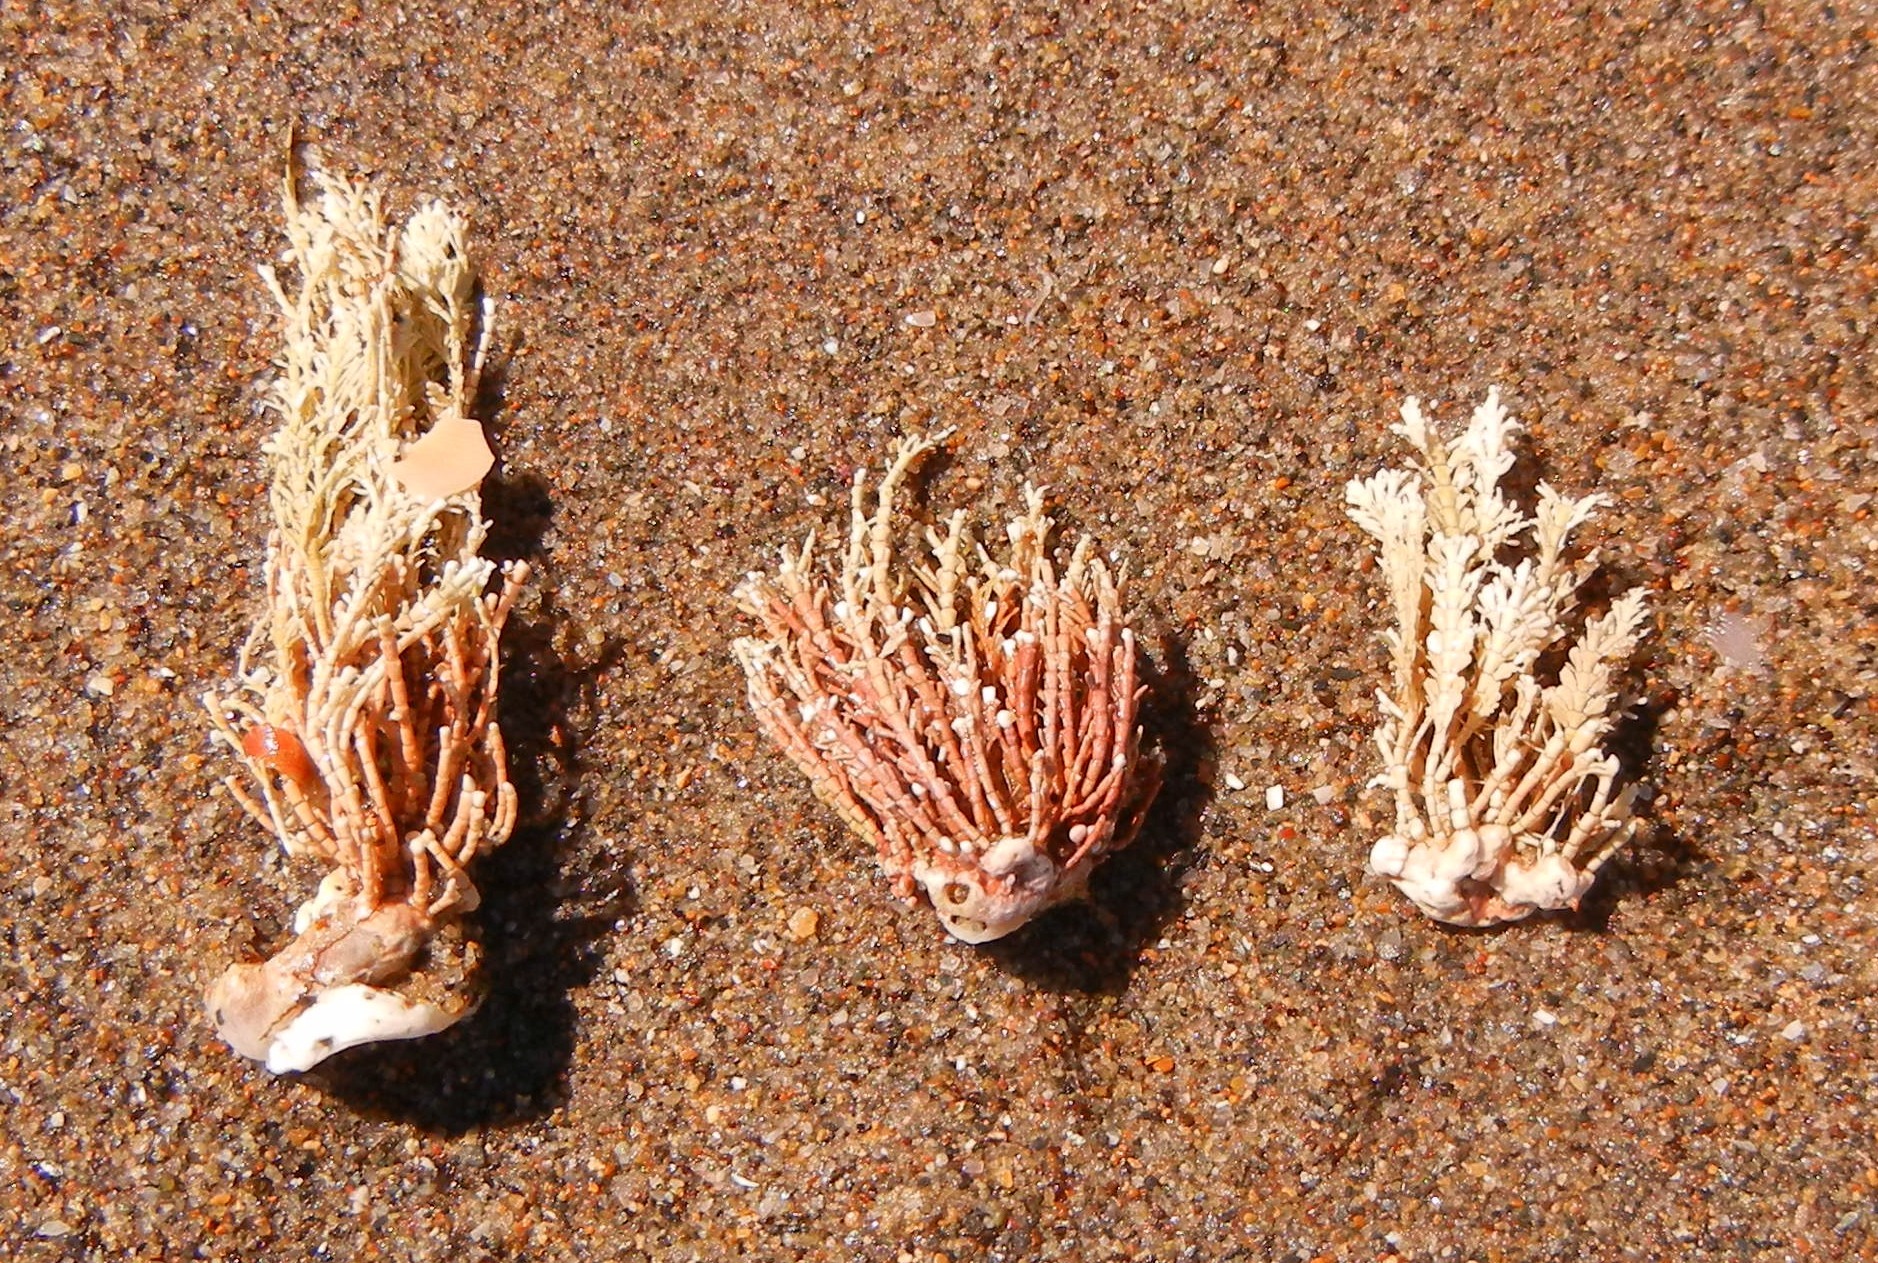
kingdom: Plantae
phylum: Rhodophyta
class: Florideophyceae
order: Corallinales
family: Corallinaceae
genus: Corallina
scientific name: Corallina officinalis
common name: Coral weed
